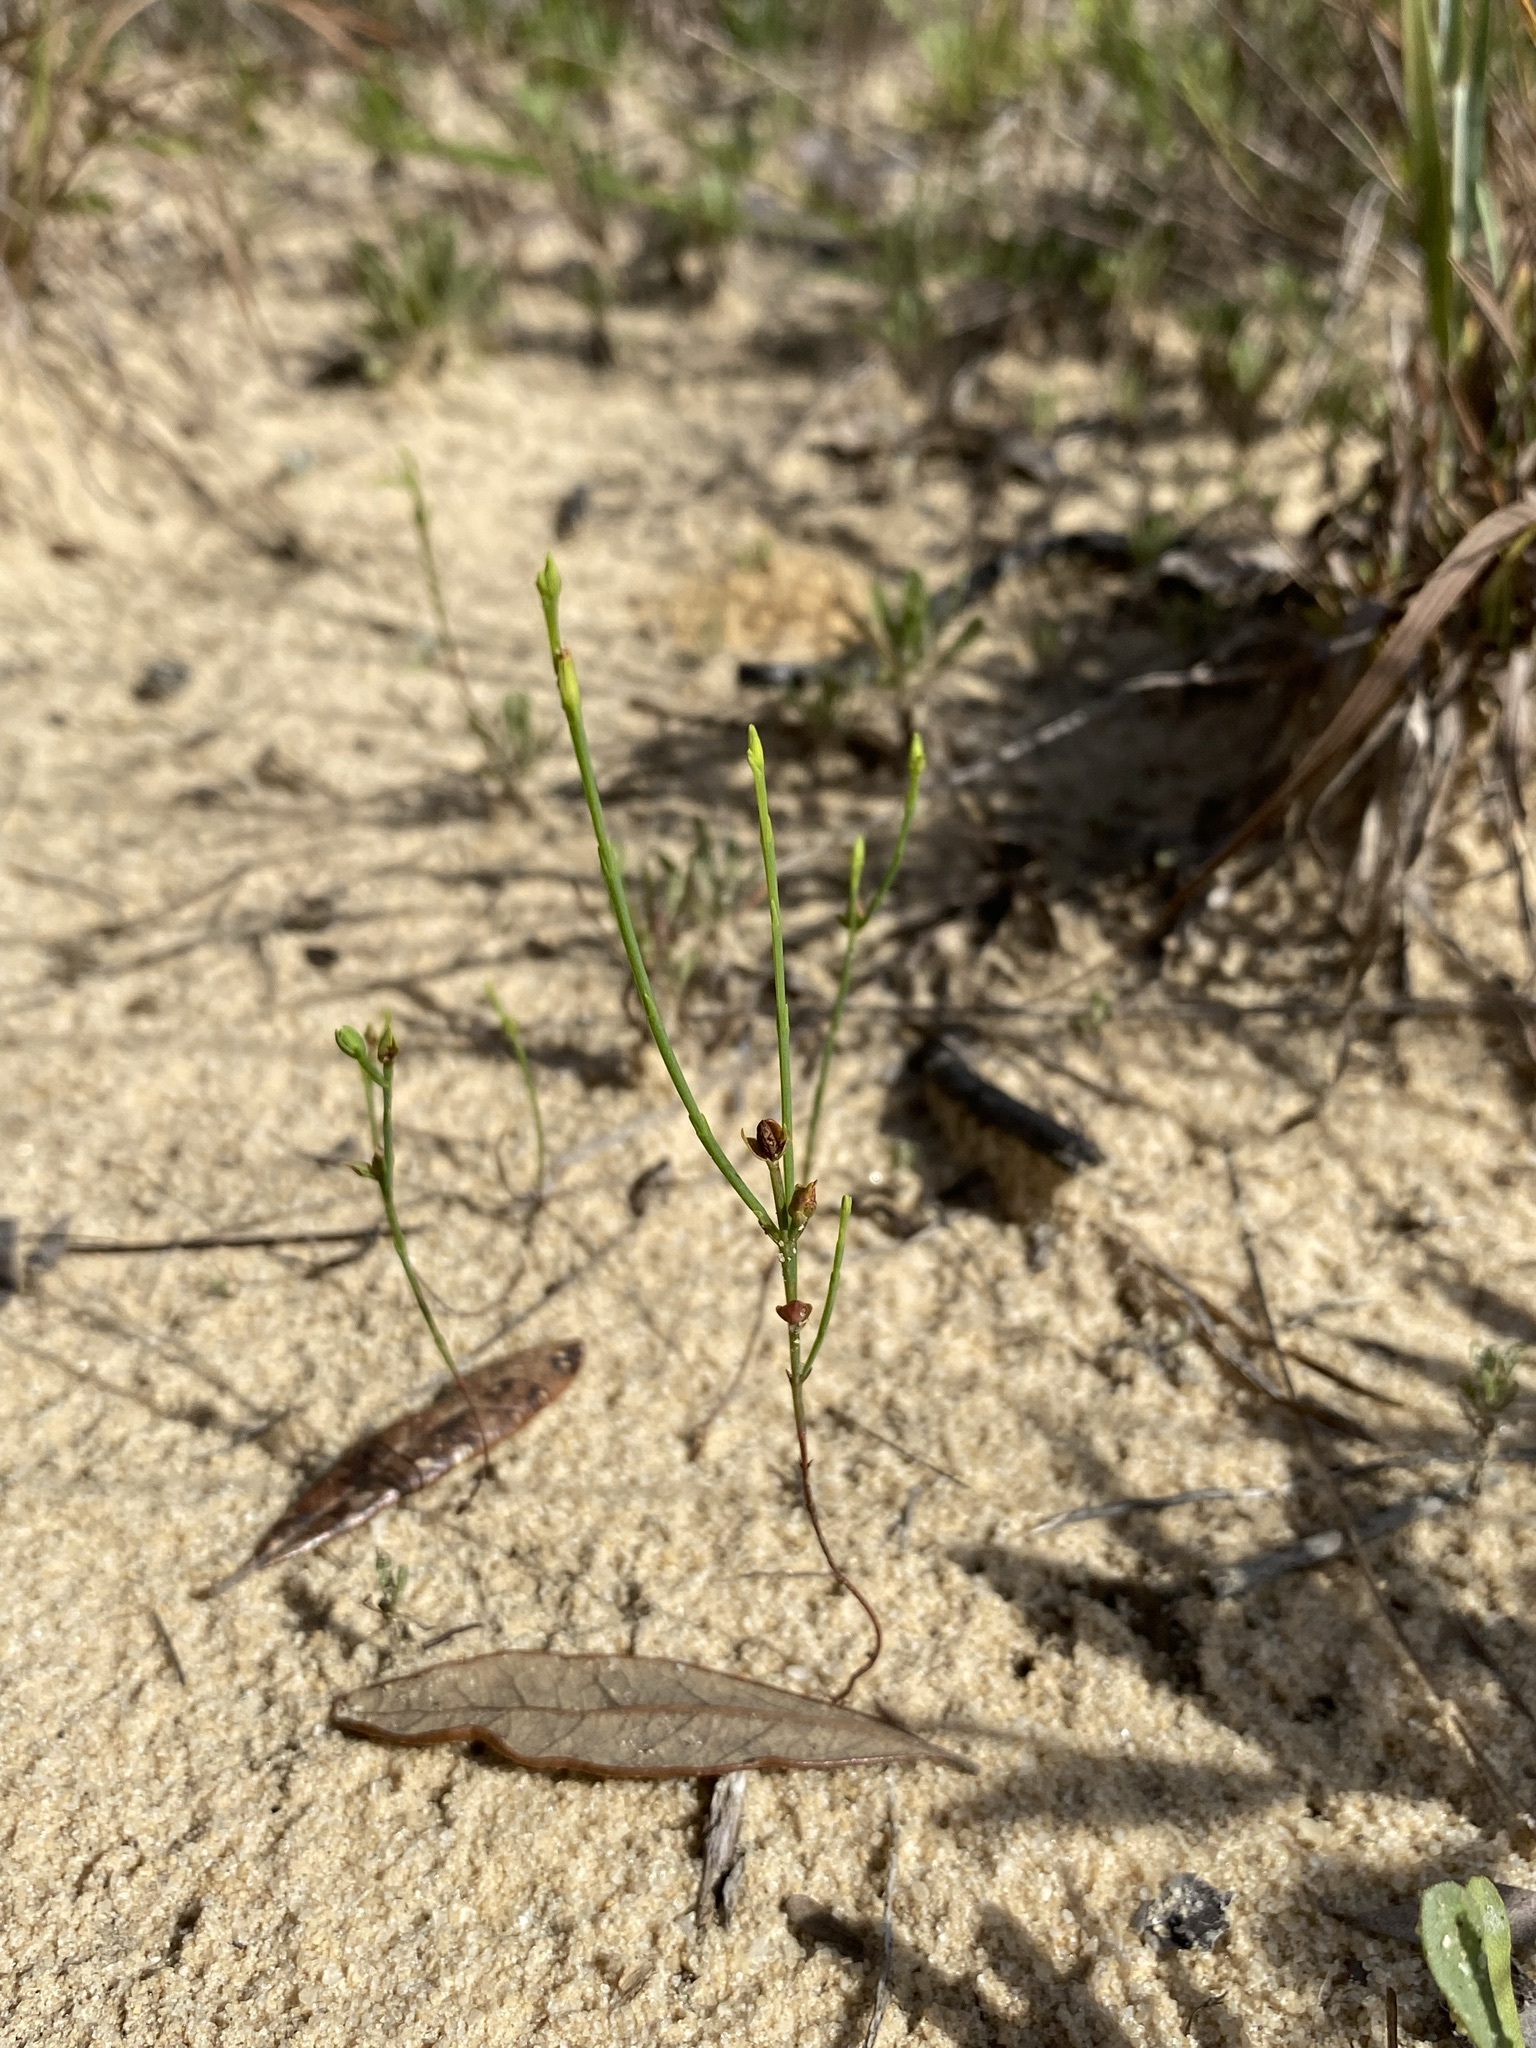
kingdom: Plantae
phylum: Tracheophyta
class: Magnoliopsida
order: Malpighiales
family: Hypericaceae
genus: Hypericum
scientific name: Hypericum gentianoides
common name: Gentian-leaved st. john's-wort
